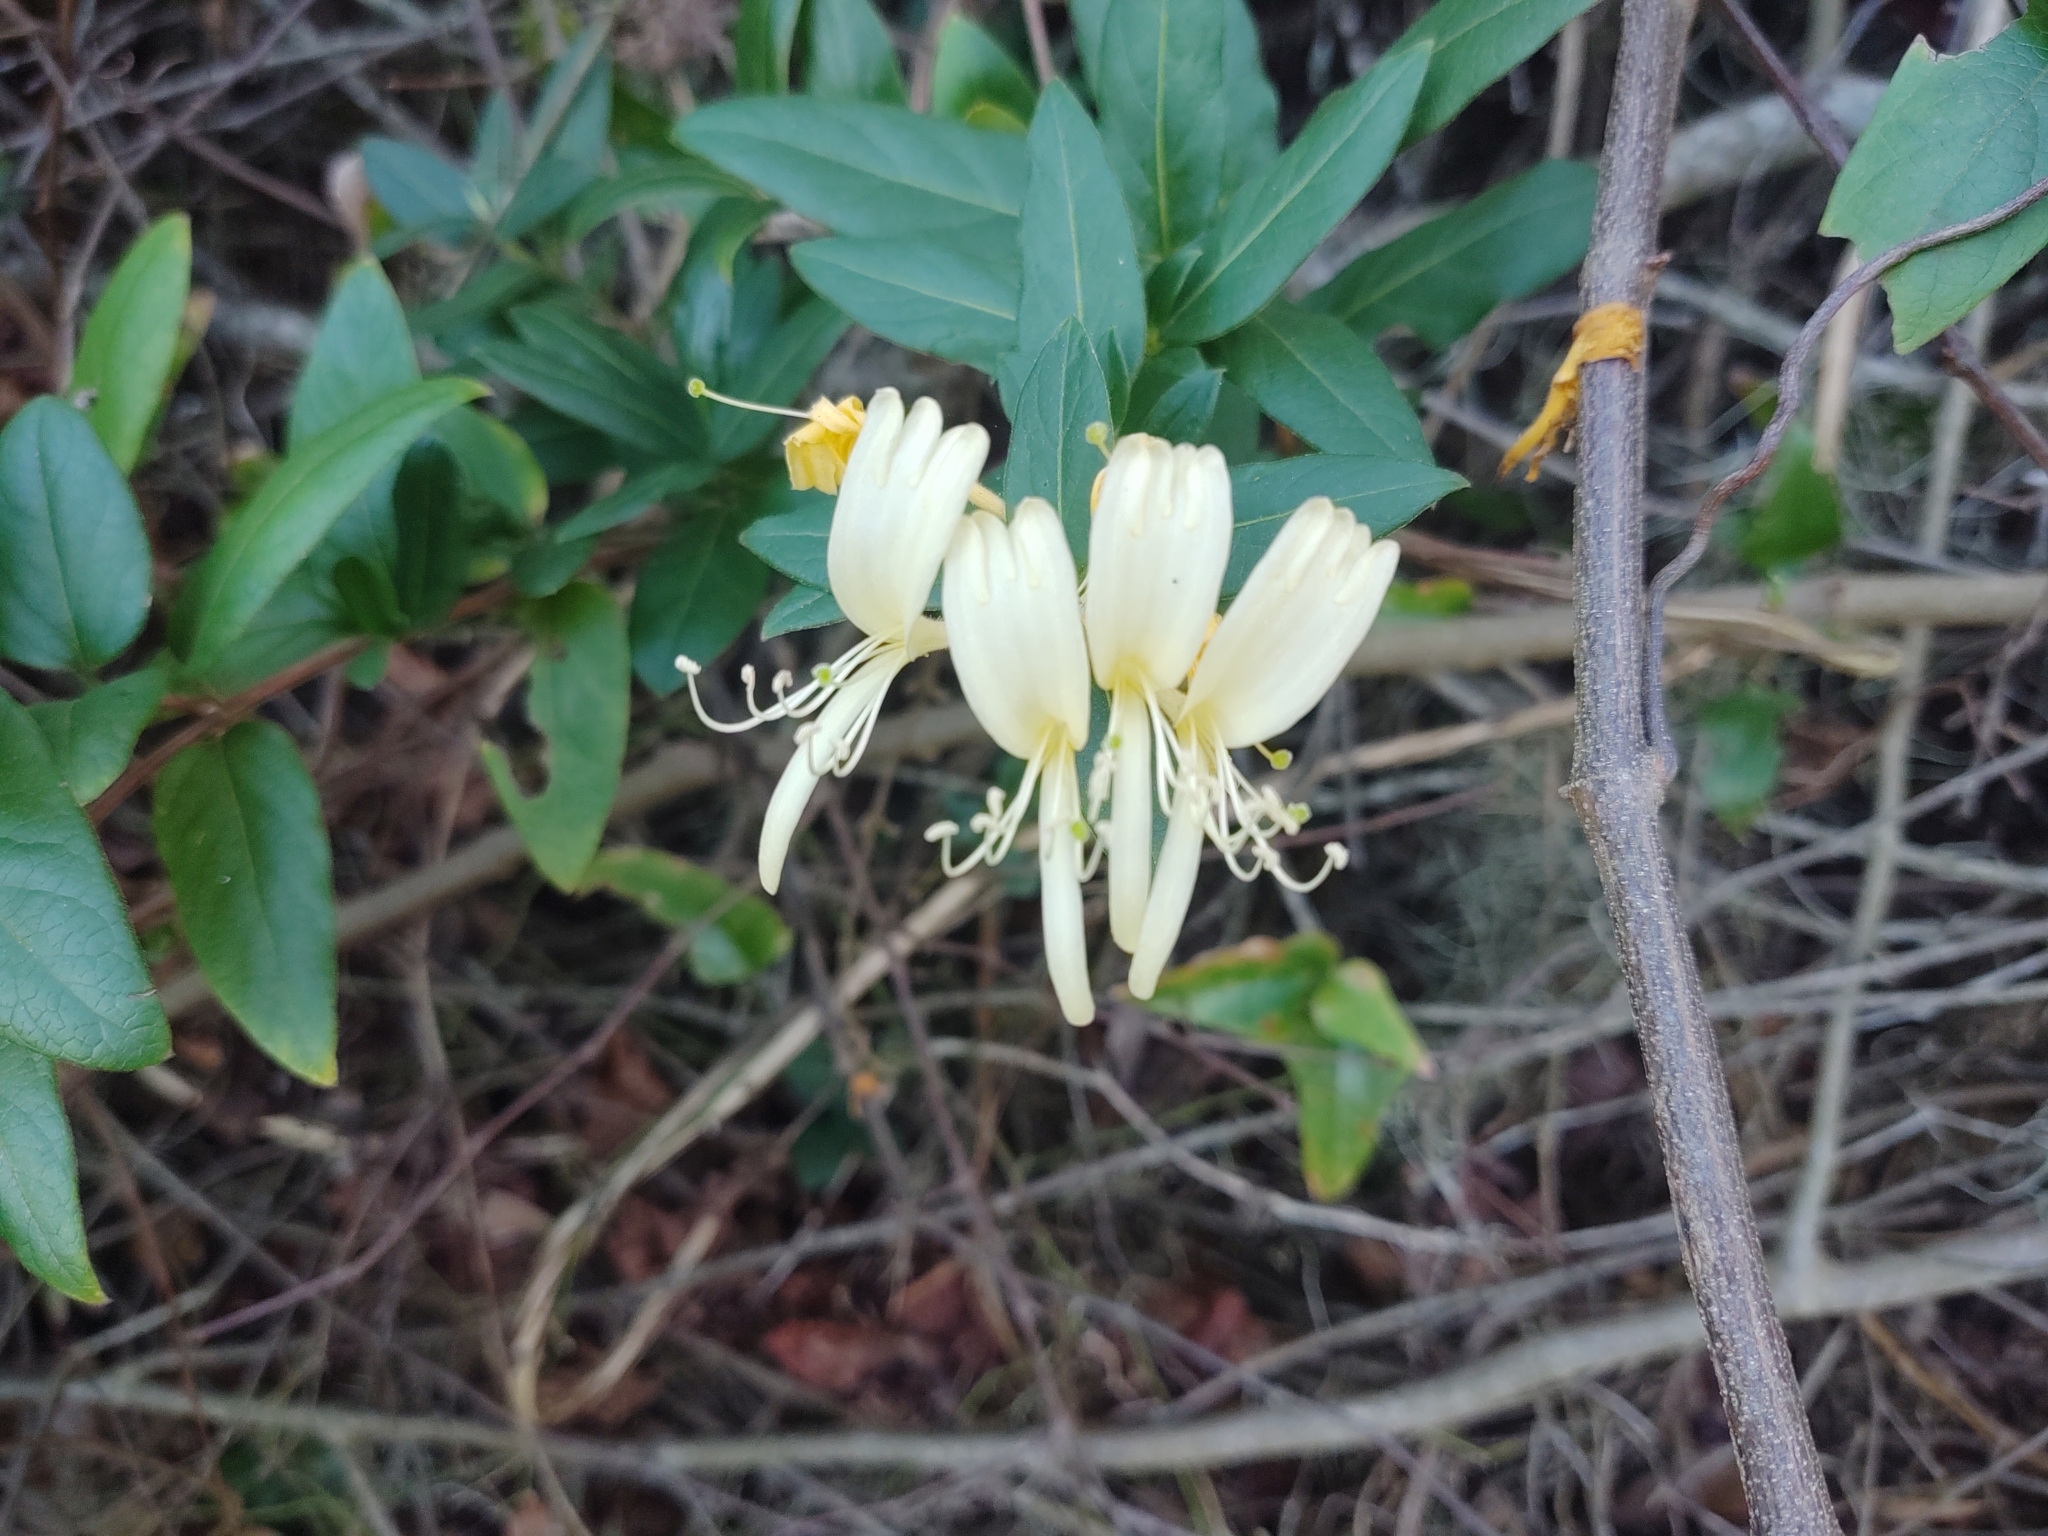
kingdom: Plantae
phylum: Tracheophyta
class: Magnoliopsida
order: Dipsacales
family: Caprifoliaceae
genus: Lonicera
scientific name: Lonicera japonica
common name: Japanese honeysuckle
